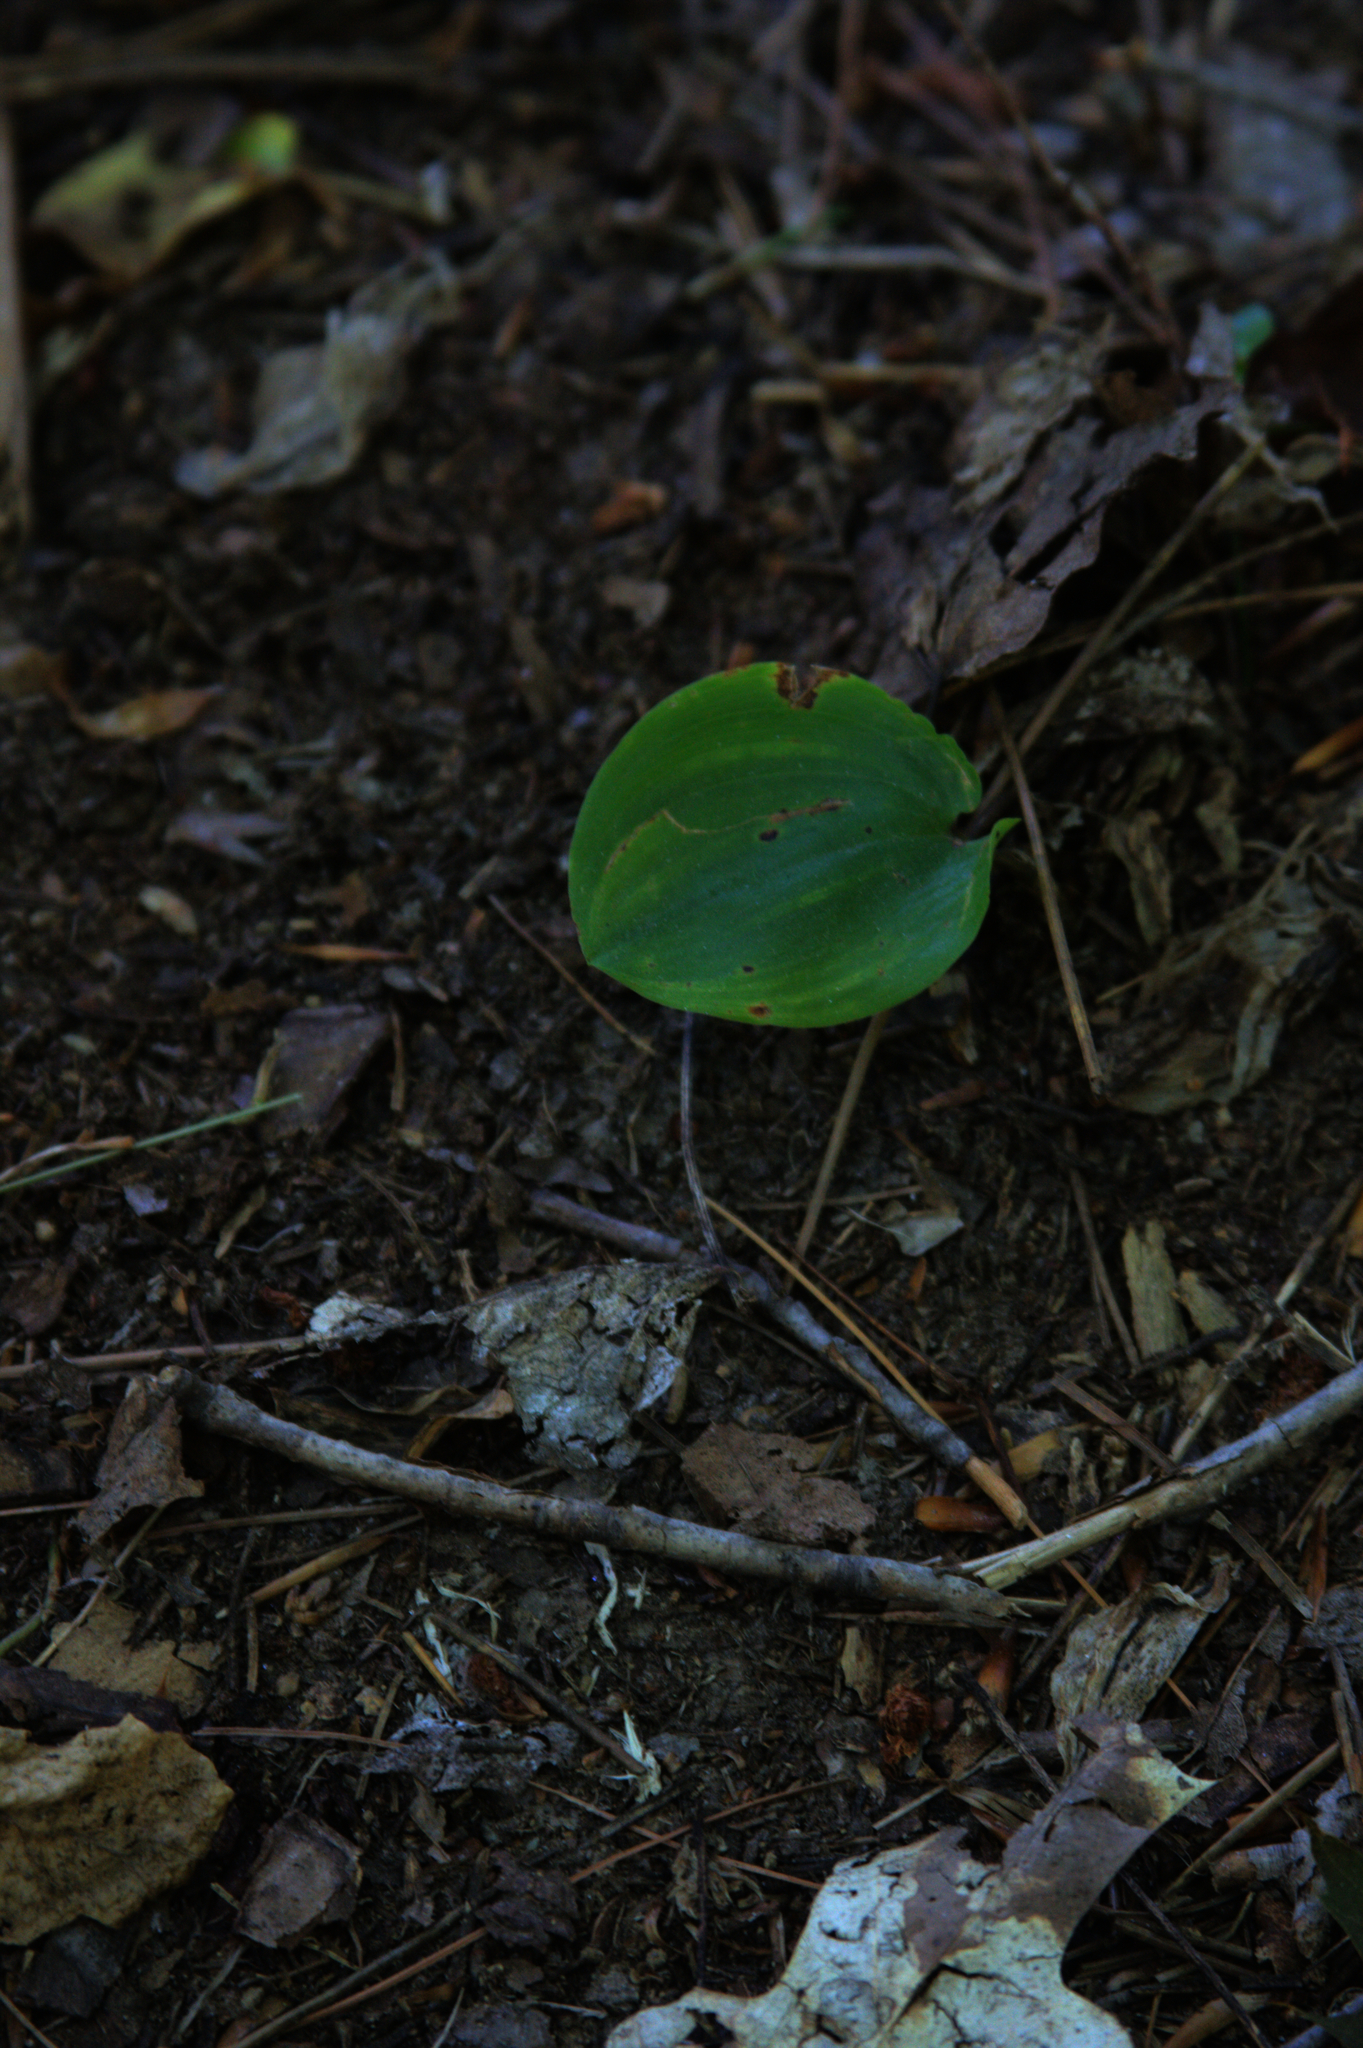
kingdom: Plantae
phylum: Tracheophyta
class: Liliopsida
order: Asparagales
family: Asparagaceae
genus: Maianthemum
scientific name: Maianthemum canadense
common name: False lily-of-the-valley
